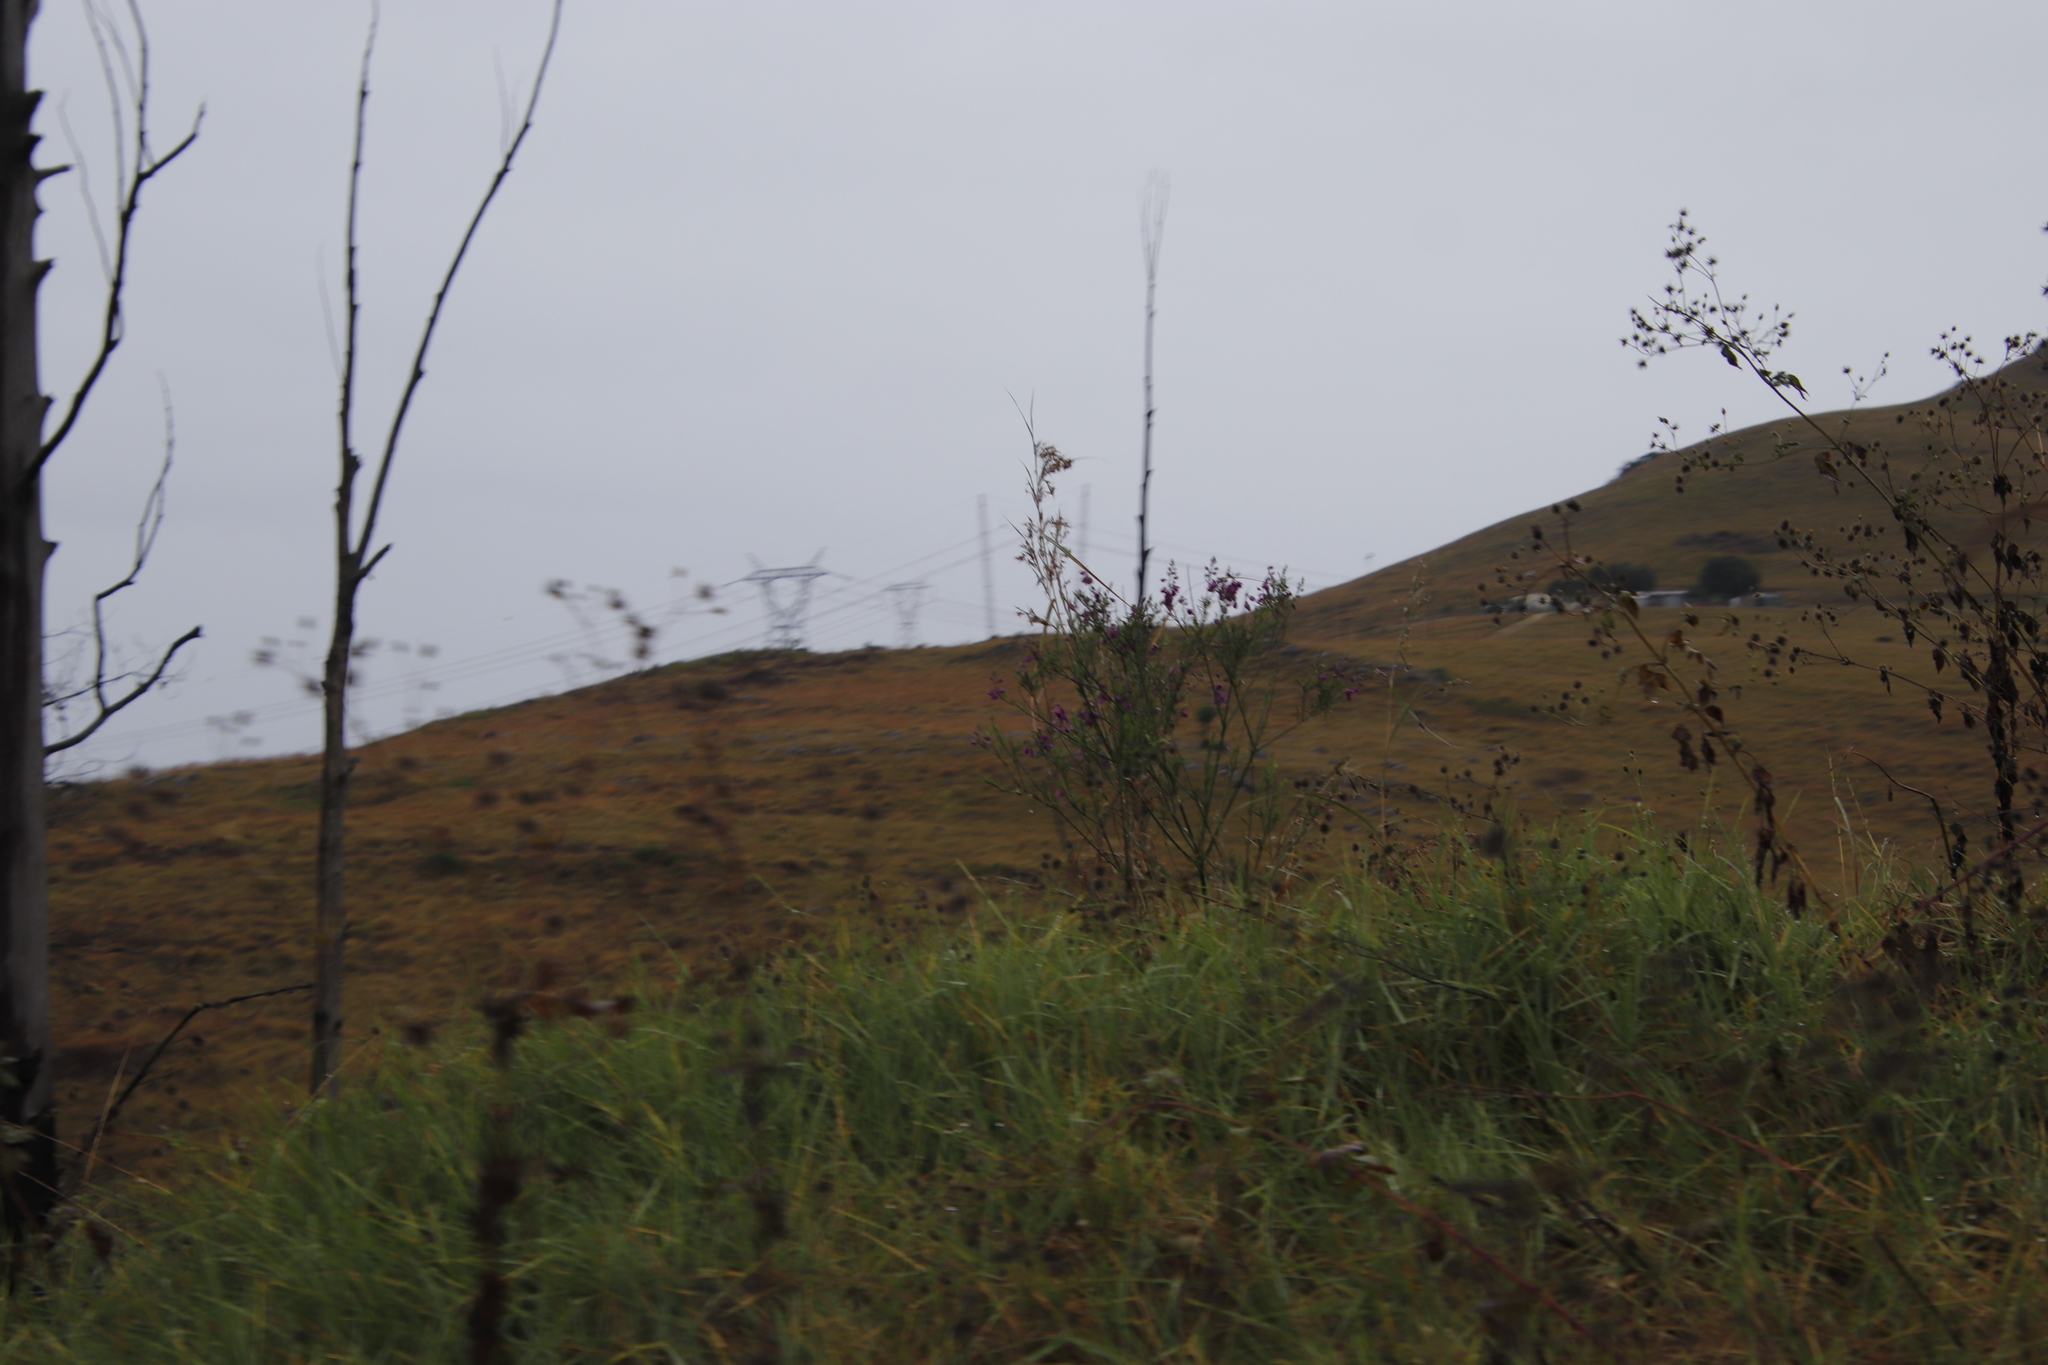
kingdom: Plantae
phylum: Tracheophyta
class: Magnoliopsida
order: Asterales
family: Asteraceae
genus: Tagetes
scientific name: Tagetes minuta
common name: Muster john henry
